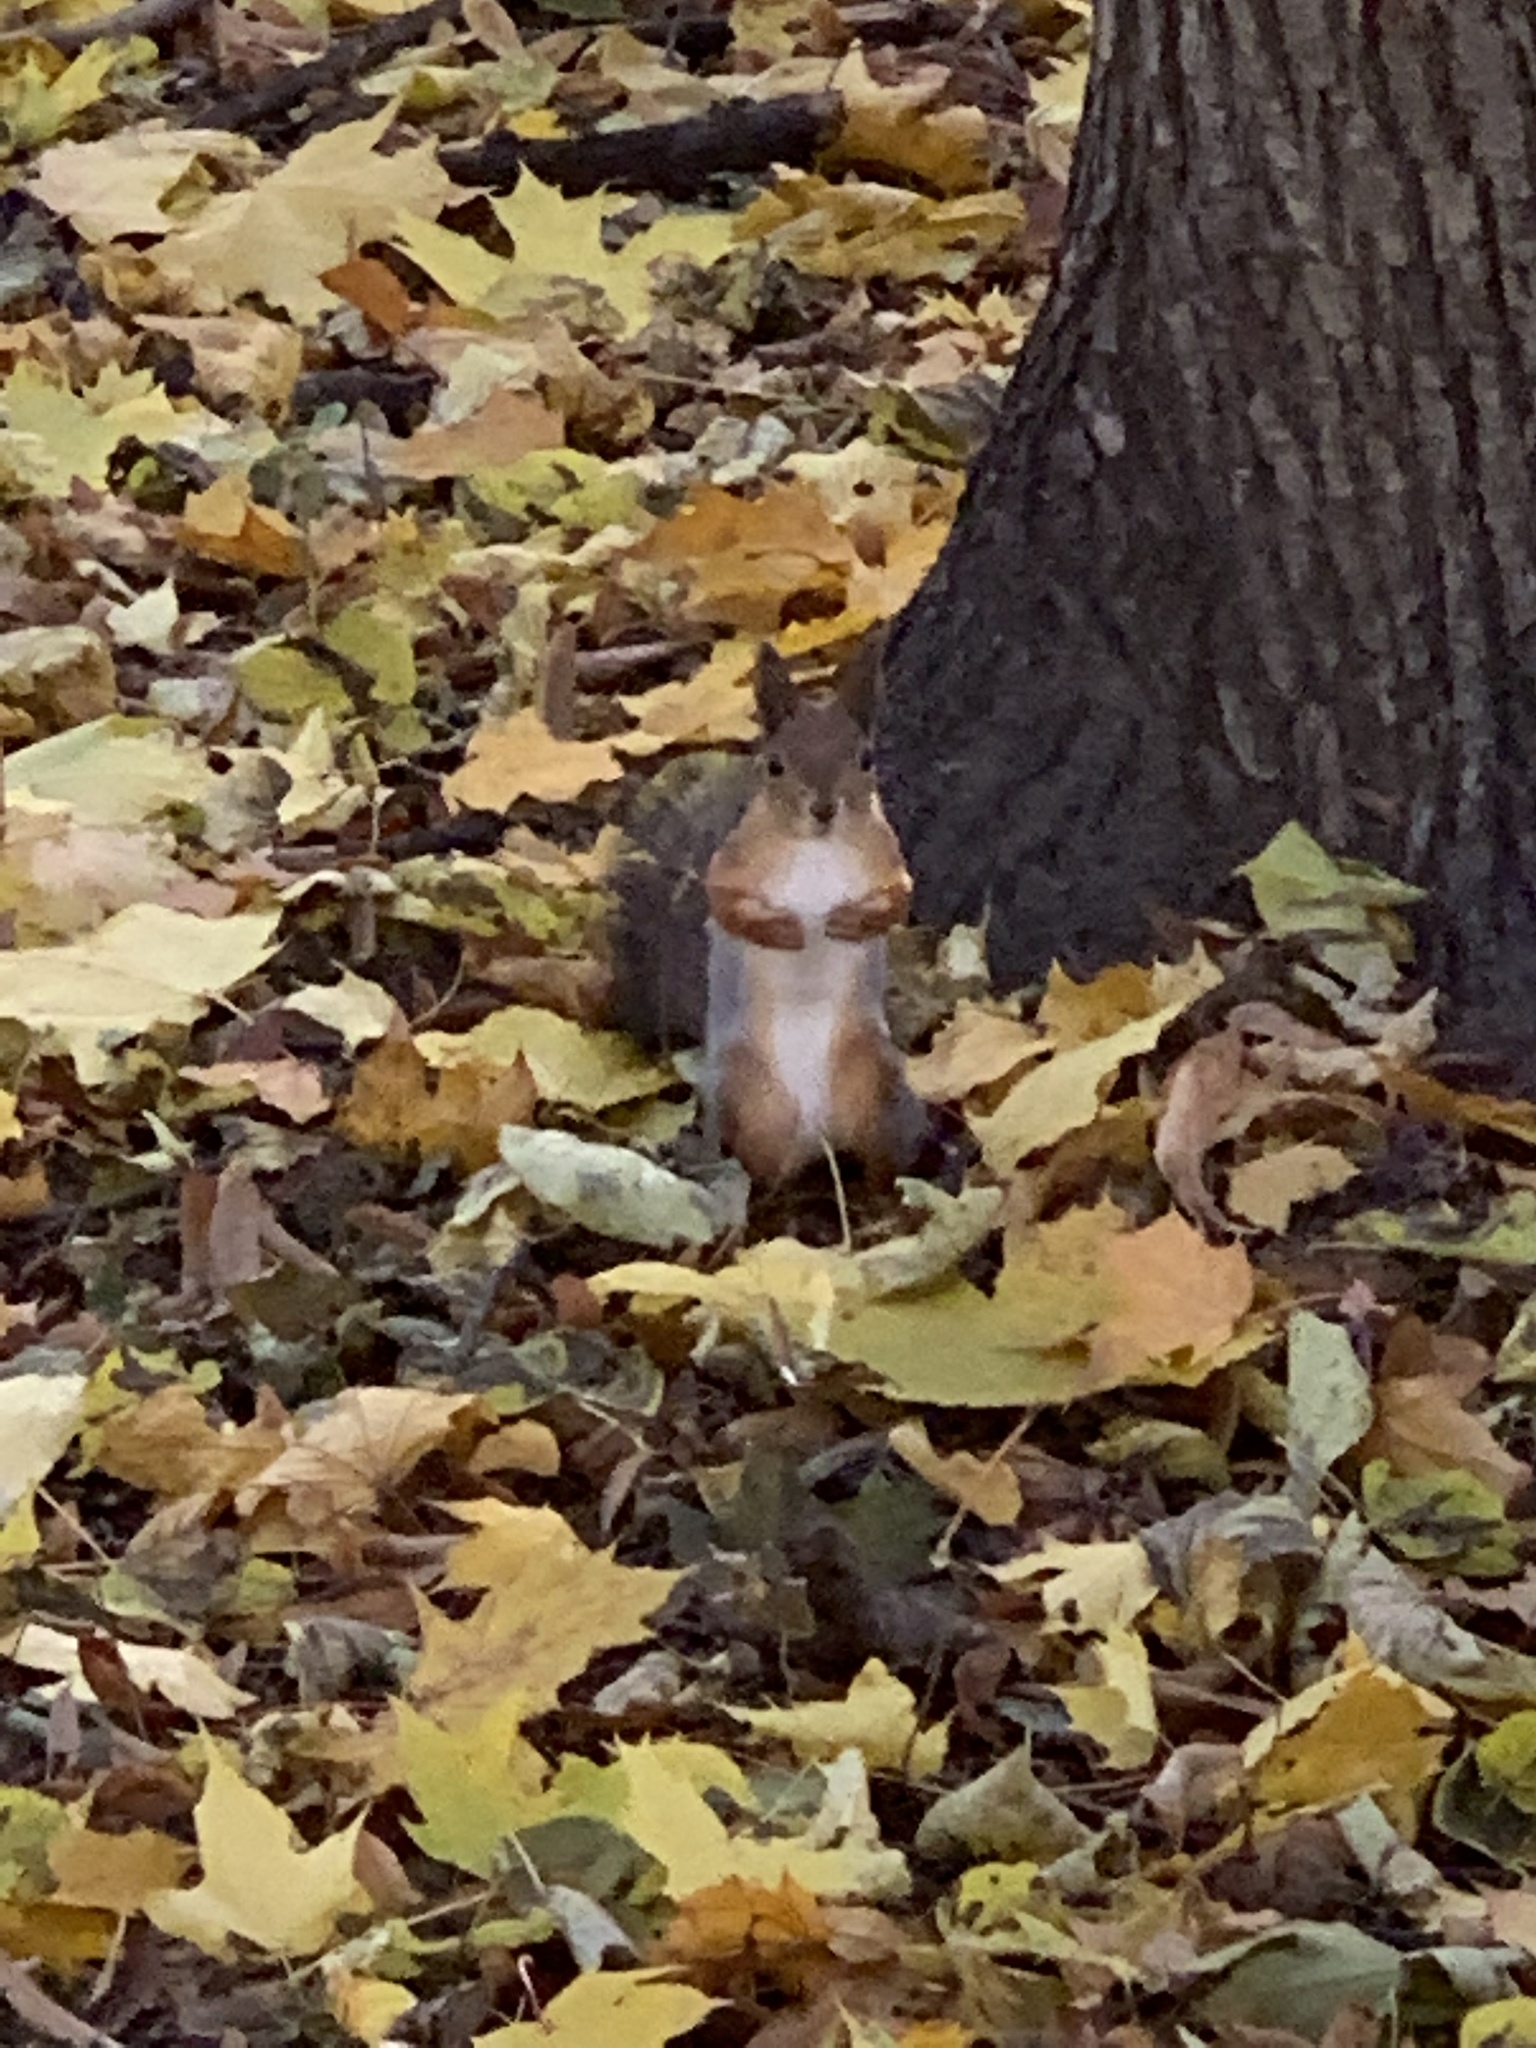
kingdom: Animalia
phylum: Chordata
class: Mammalia
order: Rodentia
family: Sciuridae
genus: Sciurus
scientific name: Sciurus vulgaris
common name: Eurasian red squirrel
